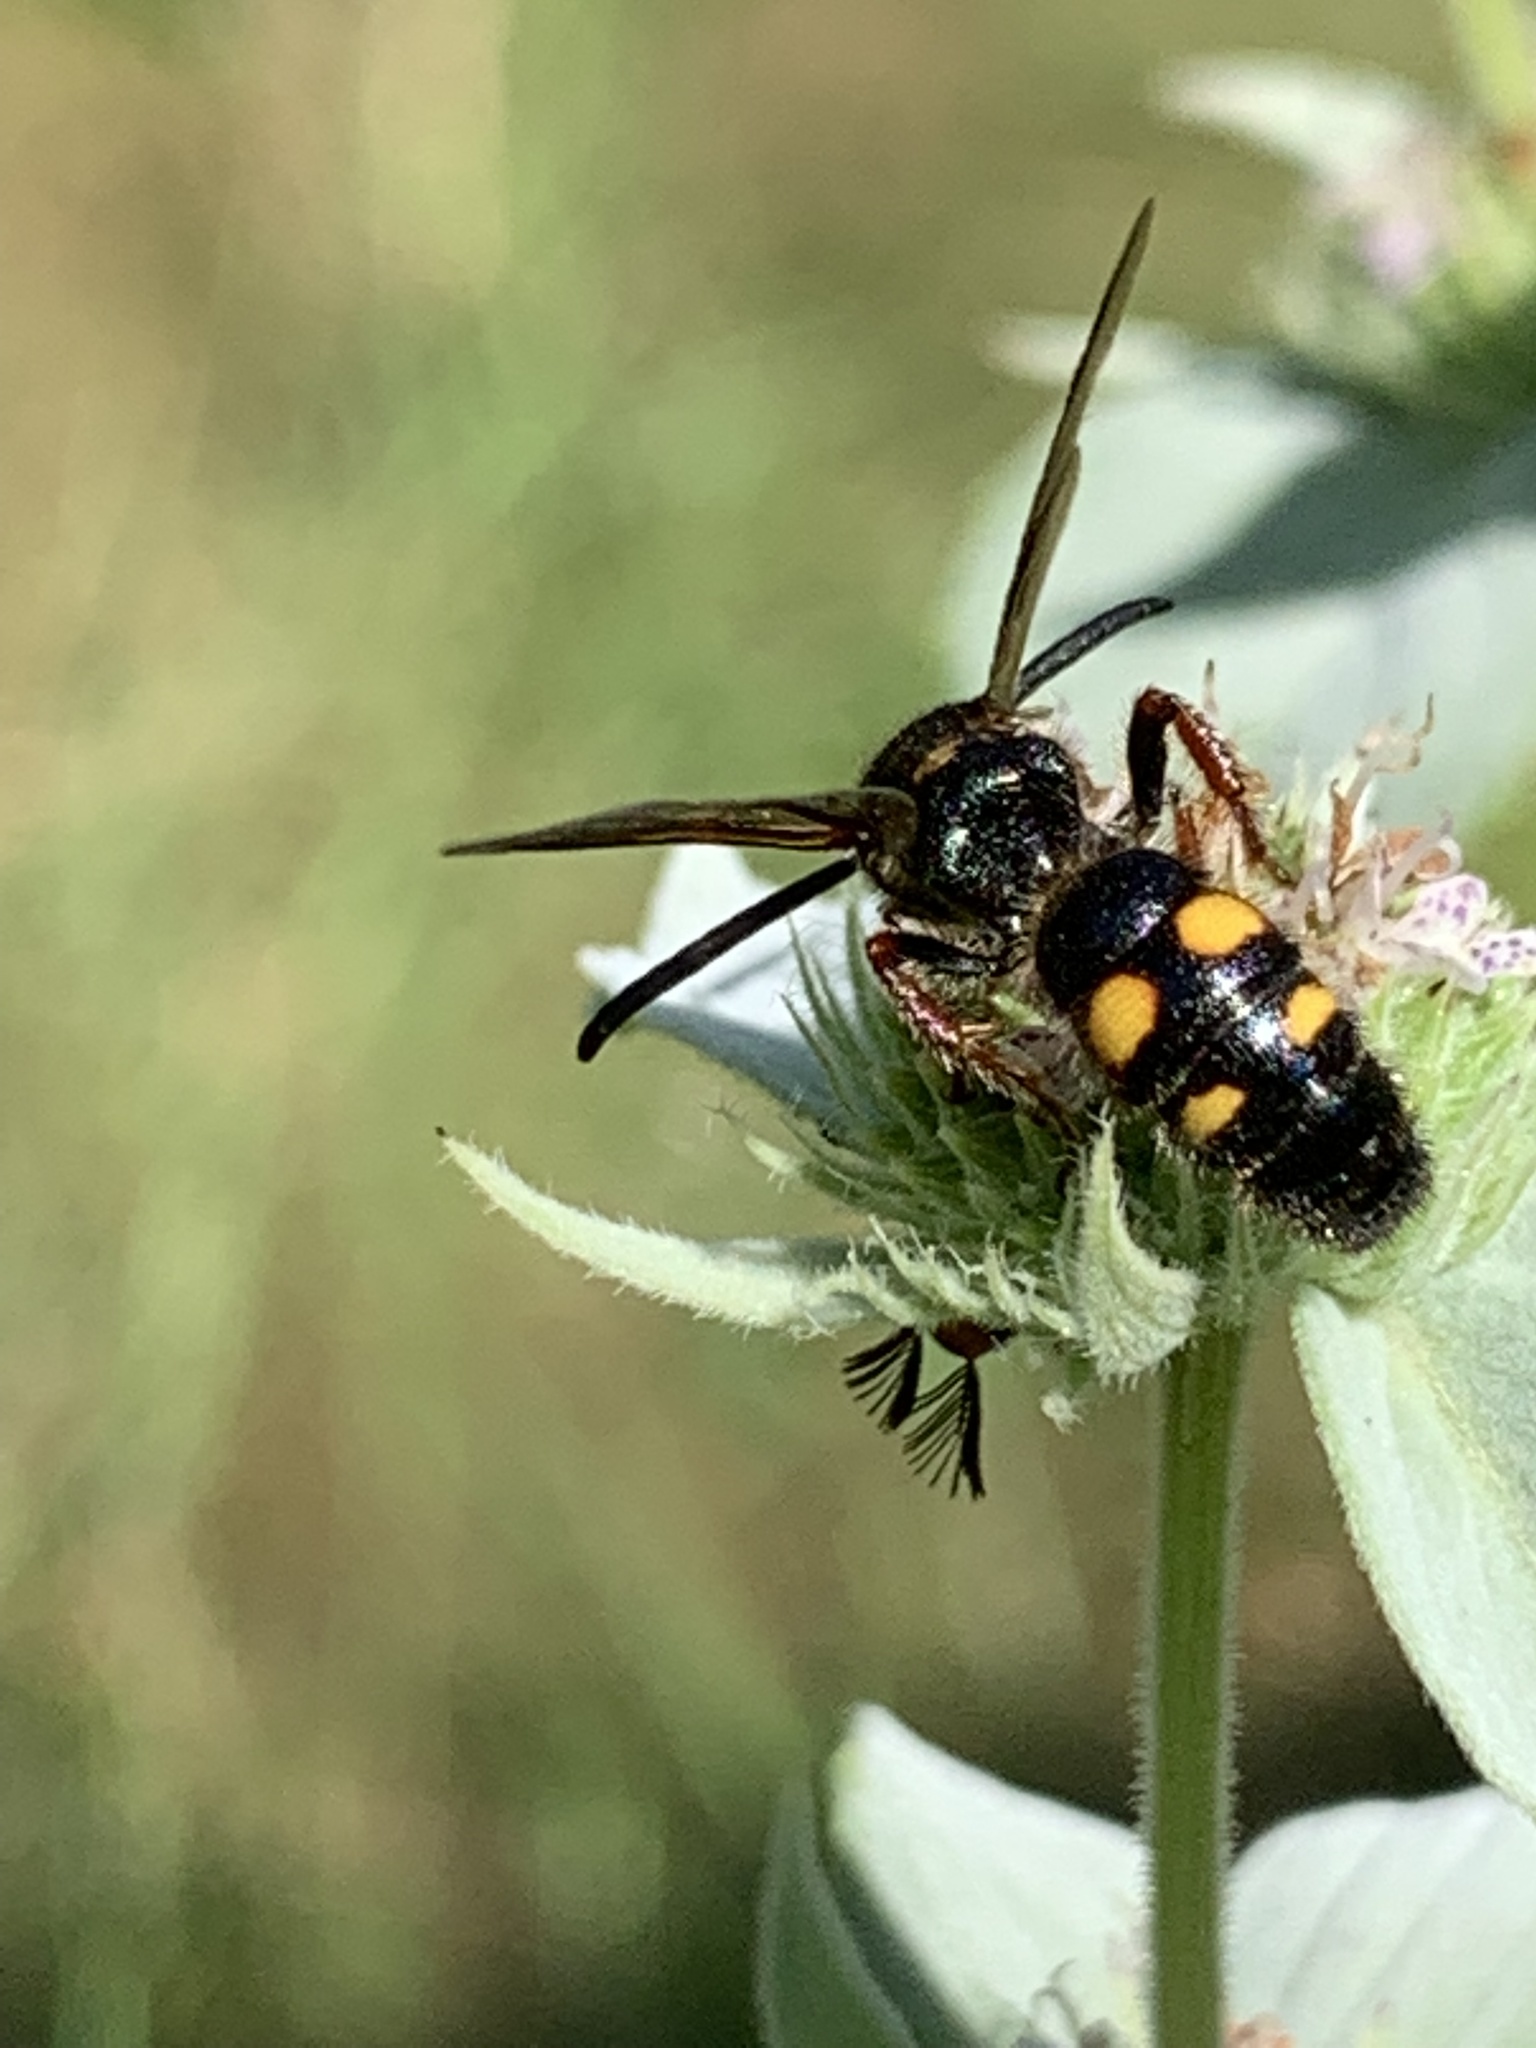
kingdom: Animalia
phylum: Arthropoda
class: Insecta
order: Hymenoptera
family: Scoliidae
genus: Scolia
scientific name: Scolia nobilitata
